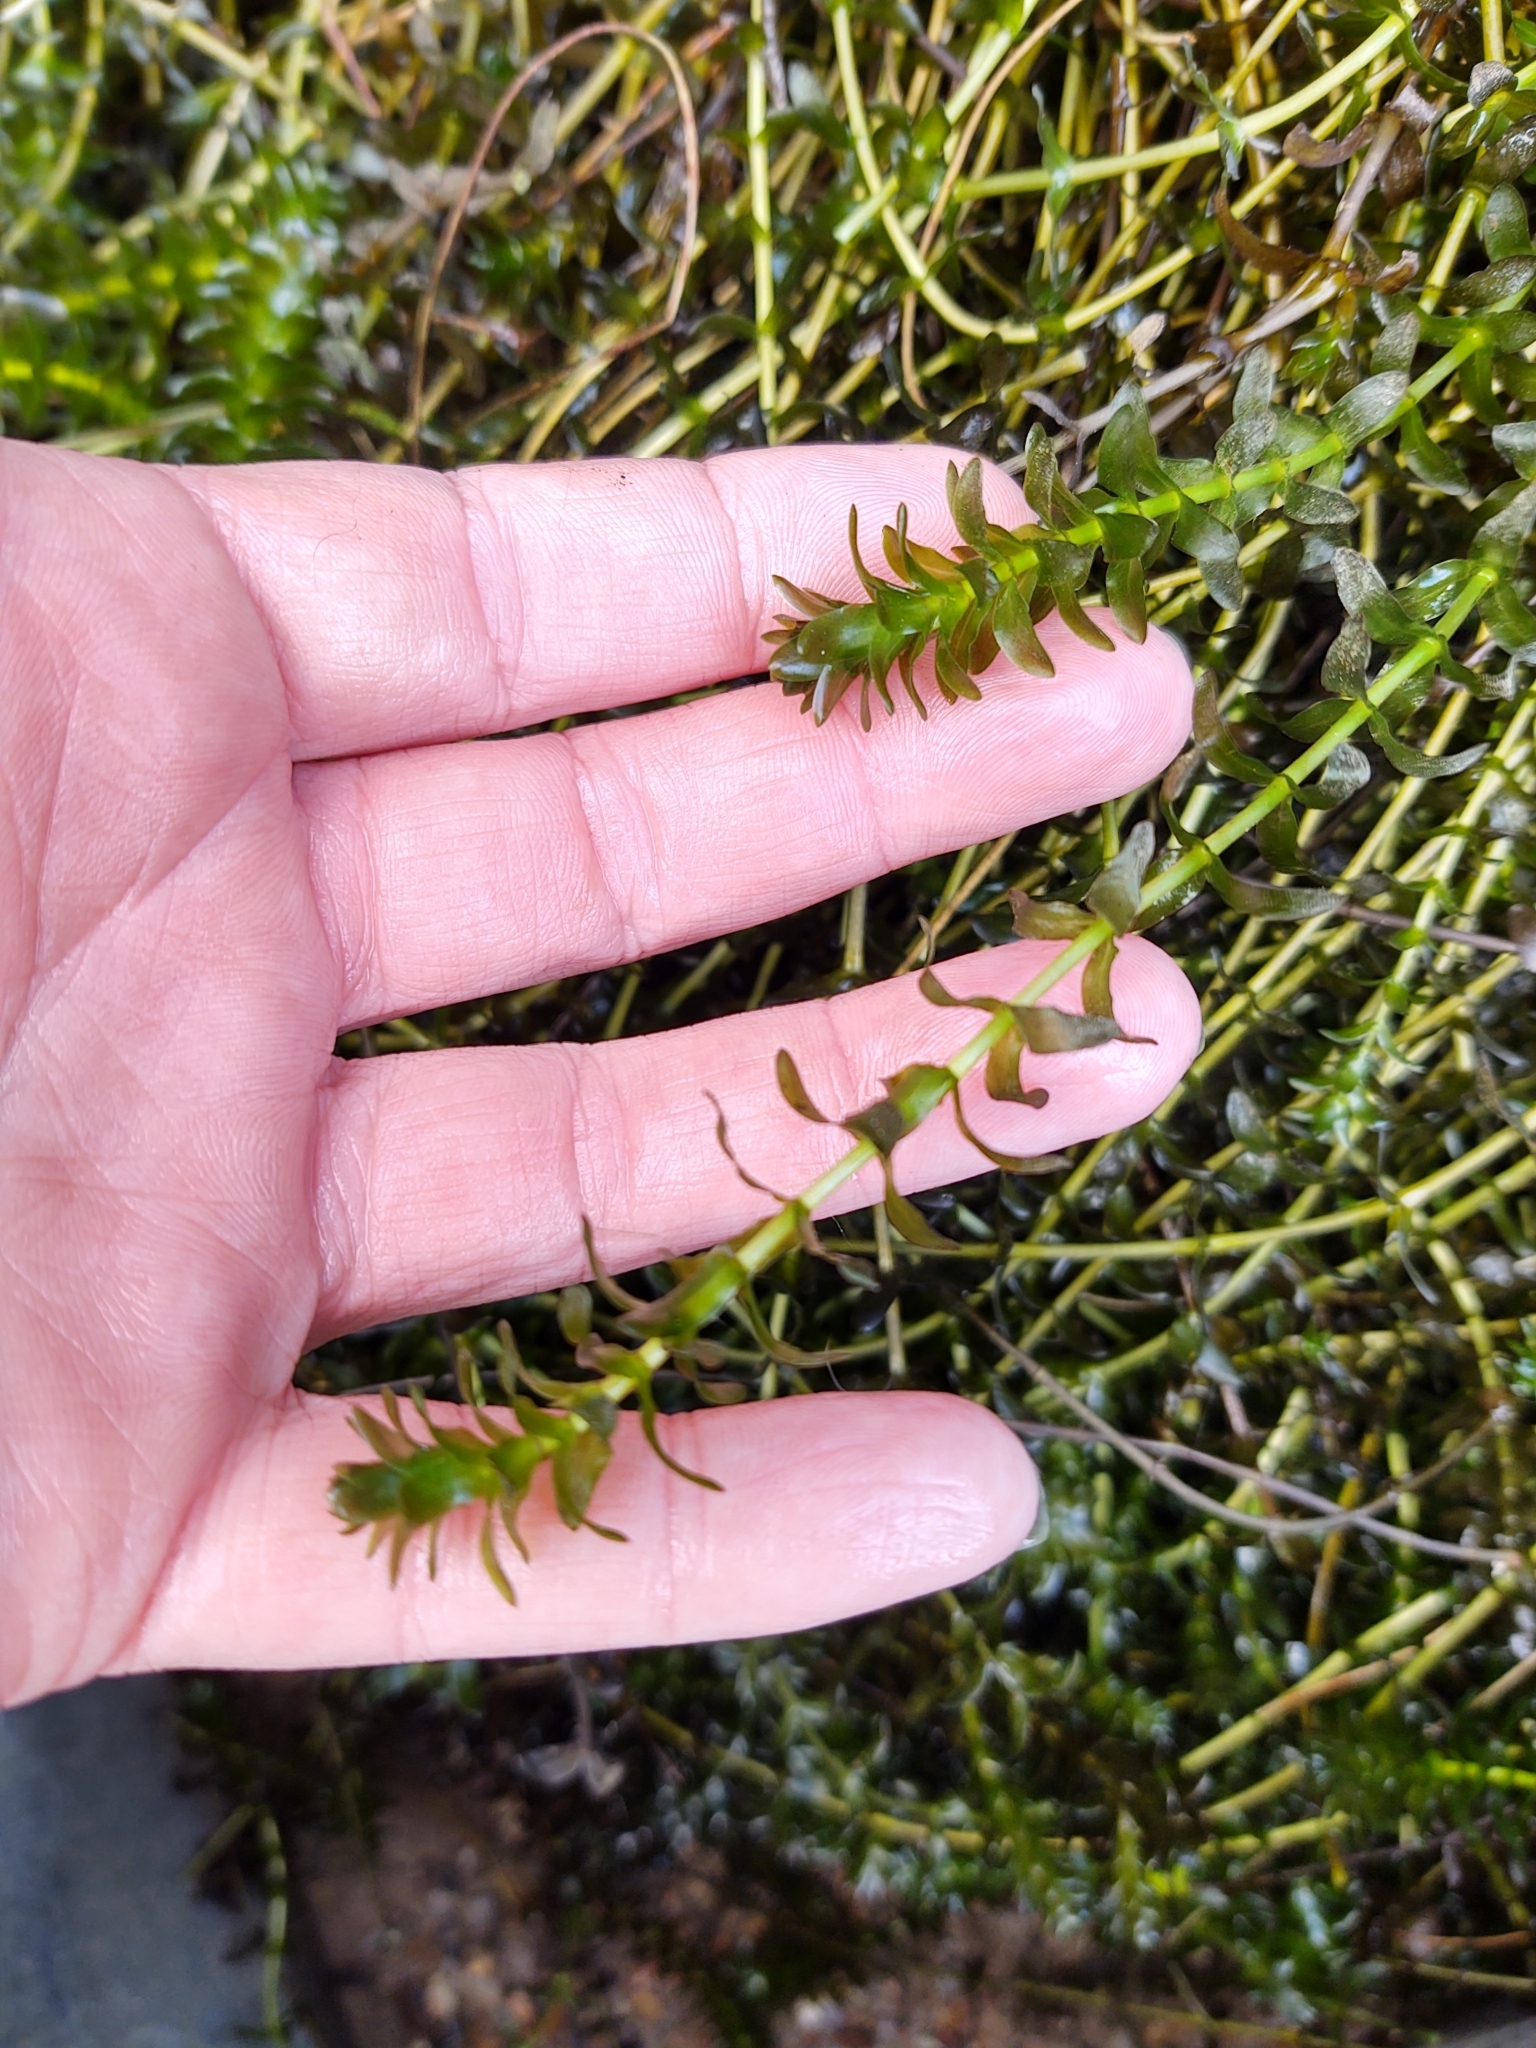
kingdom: Plantae
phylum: Tracheophyta
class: Liliopsida
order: Alismatales
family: Hydrocharitaceae
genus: Elodea
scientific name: Elodea canadensis
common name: Canadian waterweed
